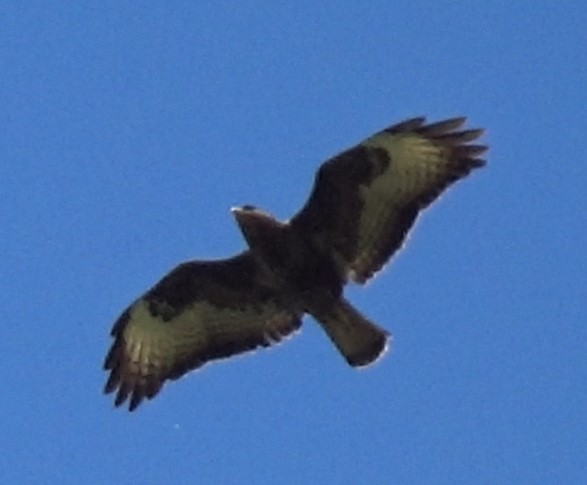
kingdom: Animalia
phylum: Chordata
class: Aves
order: Accipitriformes
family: Accipitridae
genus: Buteo
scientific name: Buteo buteo
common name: Common buzzard
